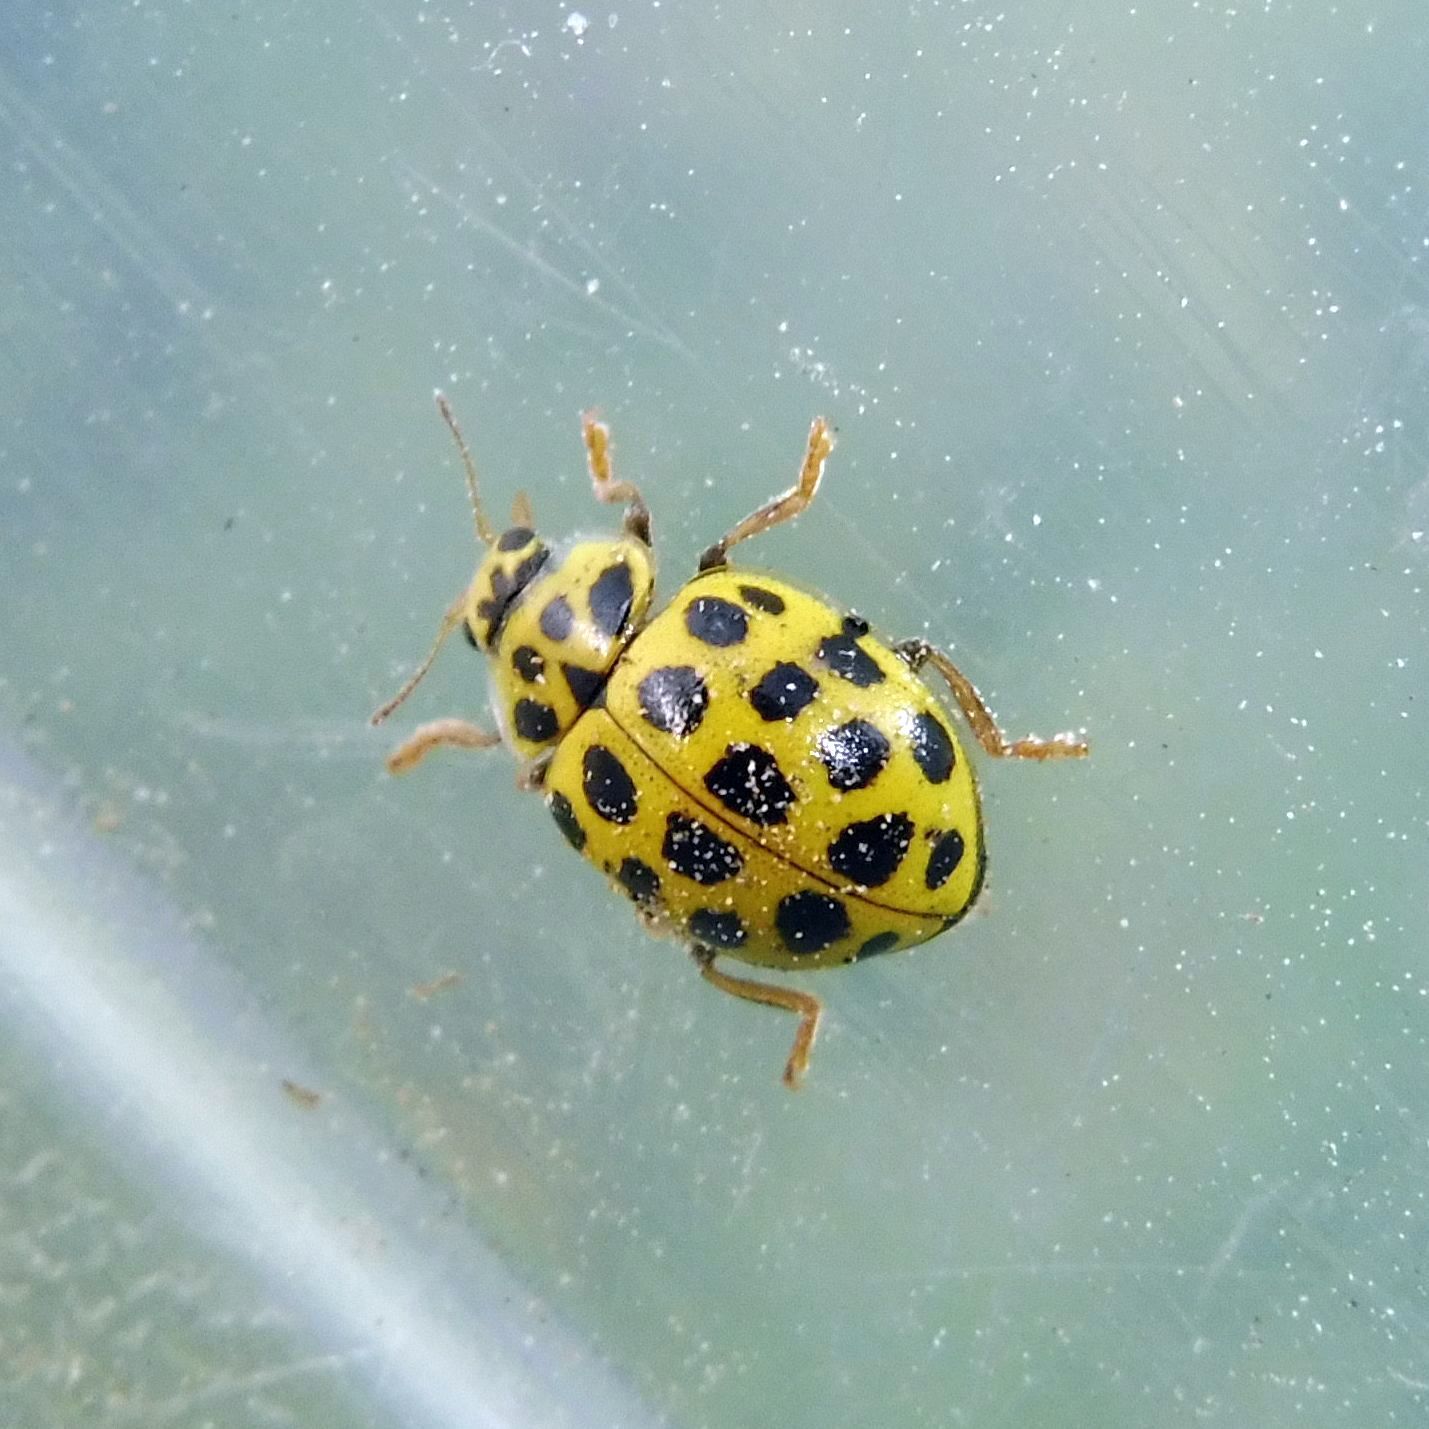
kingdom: Animalia
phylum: Arthropoda
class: Insecta
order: Coleoptera
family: Coccinellidae
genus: Psyllobora
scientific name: Psyllobora vigintiduopunctata
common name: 22-spot ladybird
